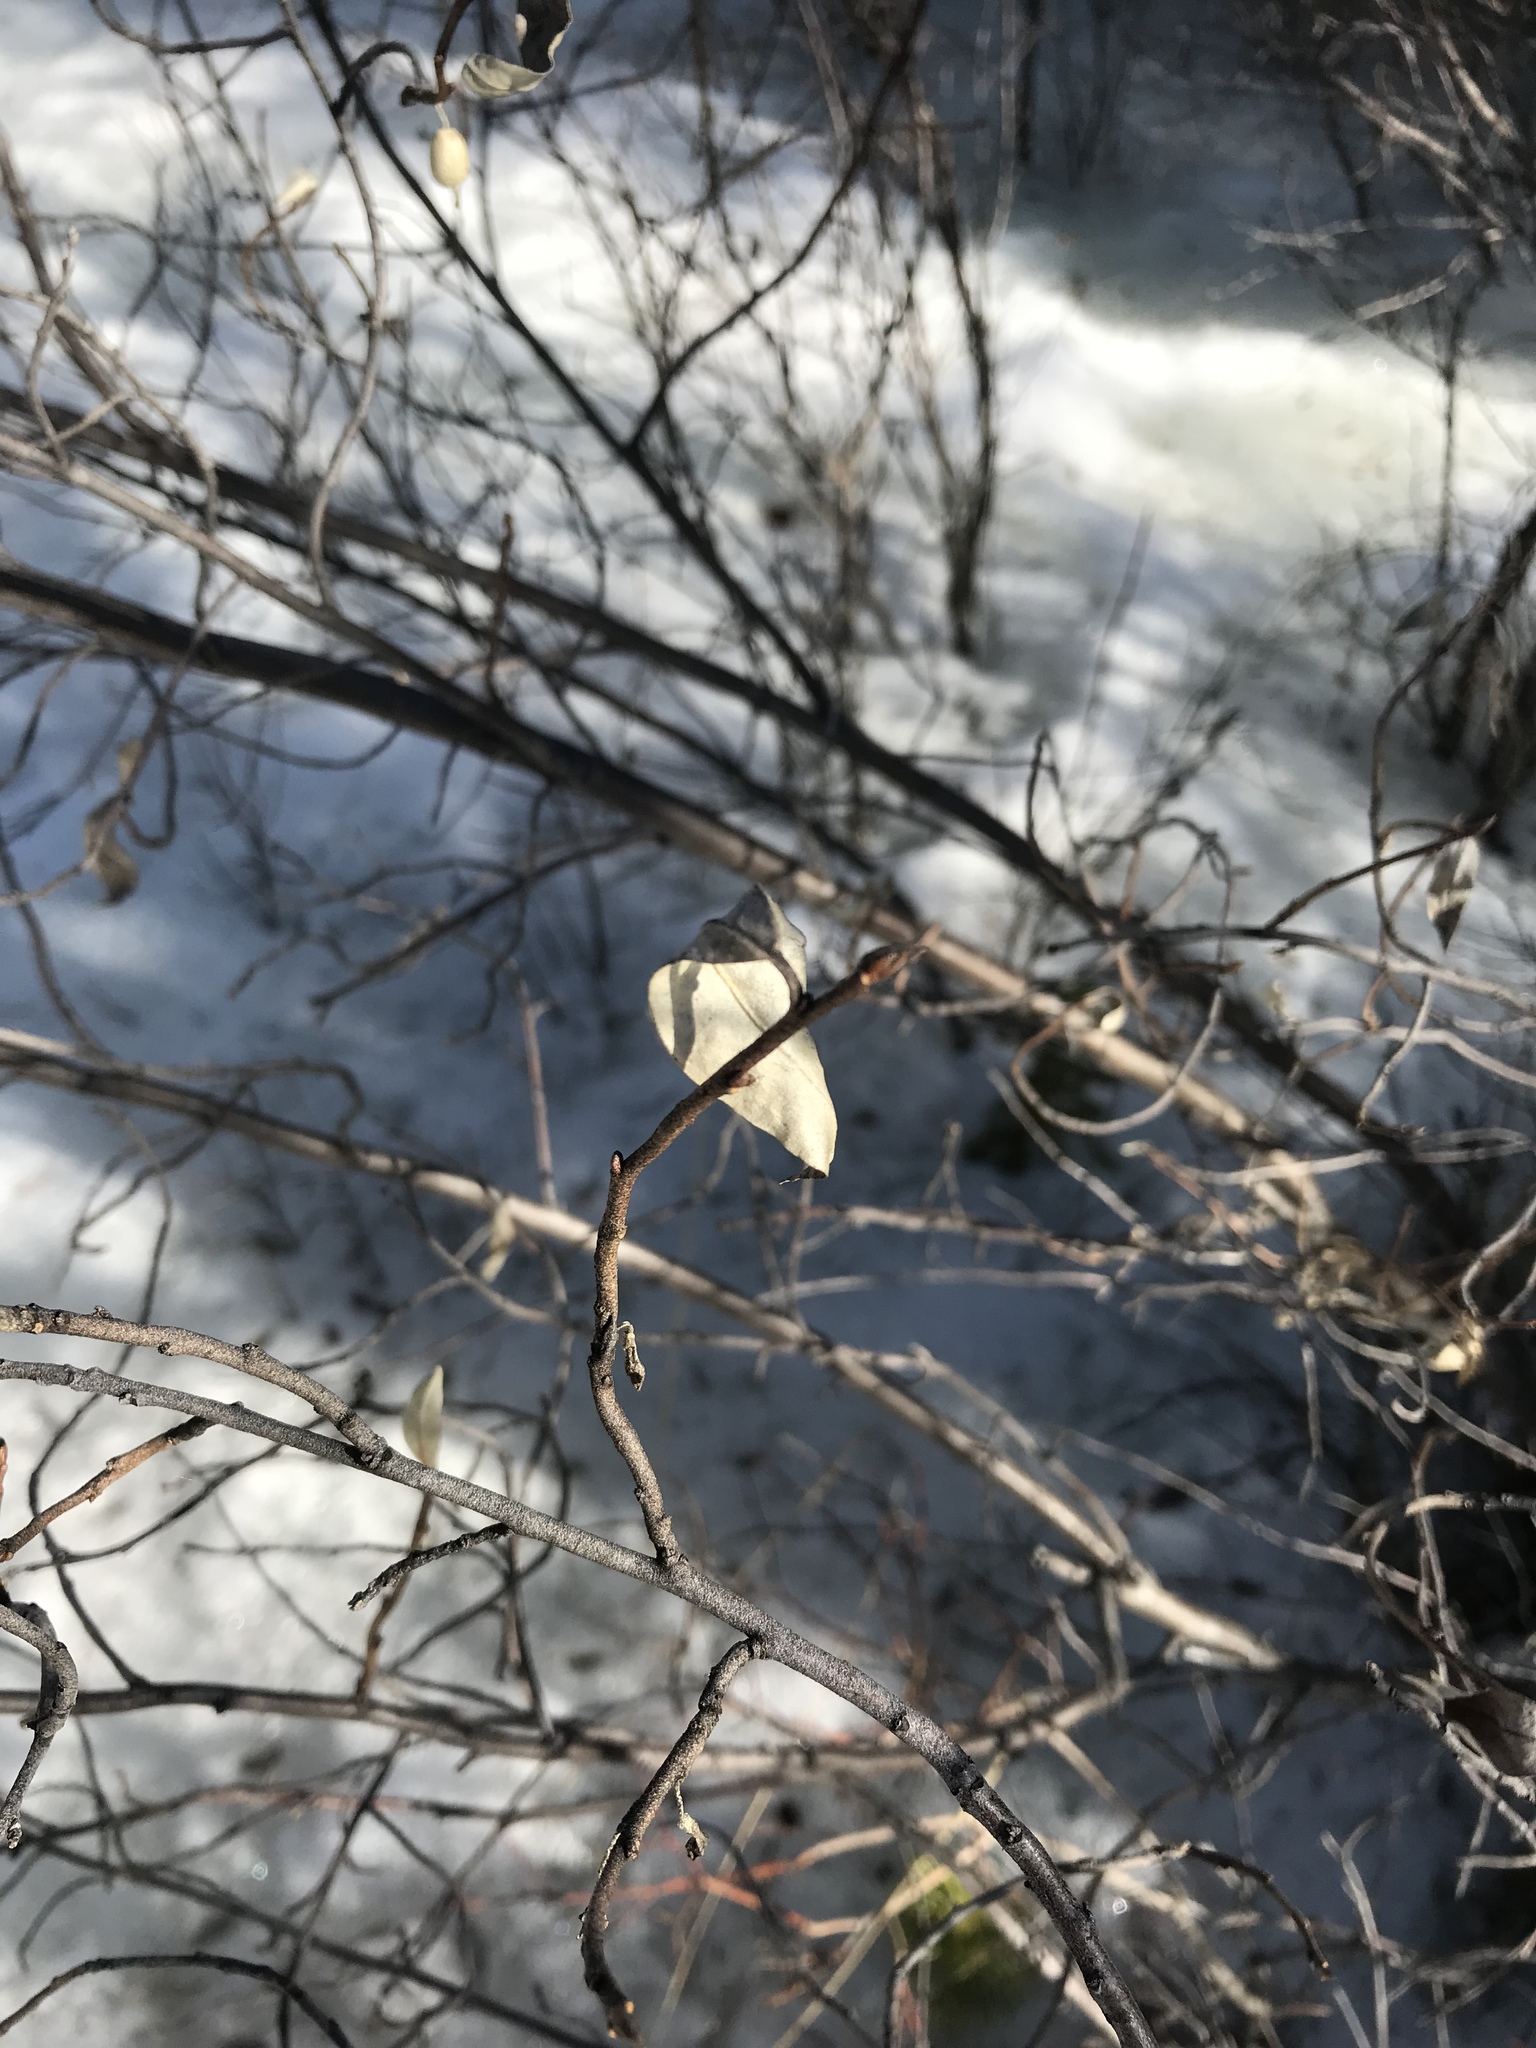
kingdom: Plantae
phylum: Tracheophyta
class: Magnoliopsida
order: Rosales
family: Elaeagnaceae
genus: Elaeagnus
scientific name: Elaeagnus commutata
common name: Silverberry
